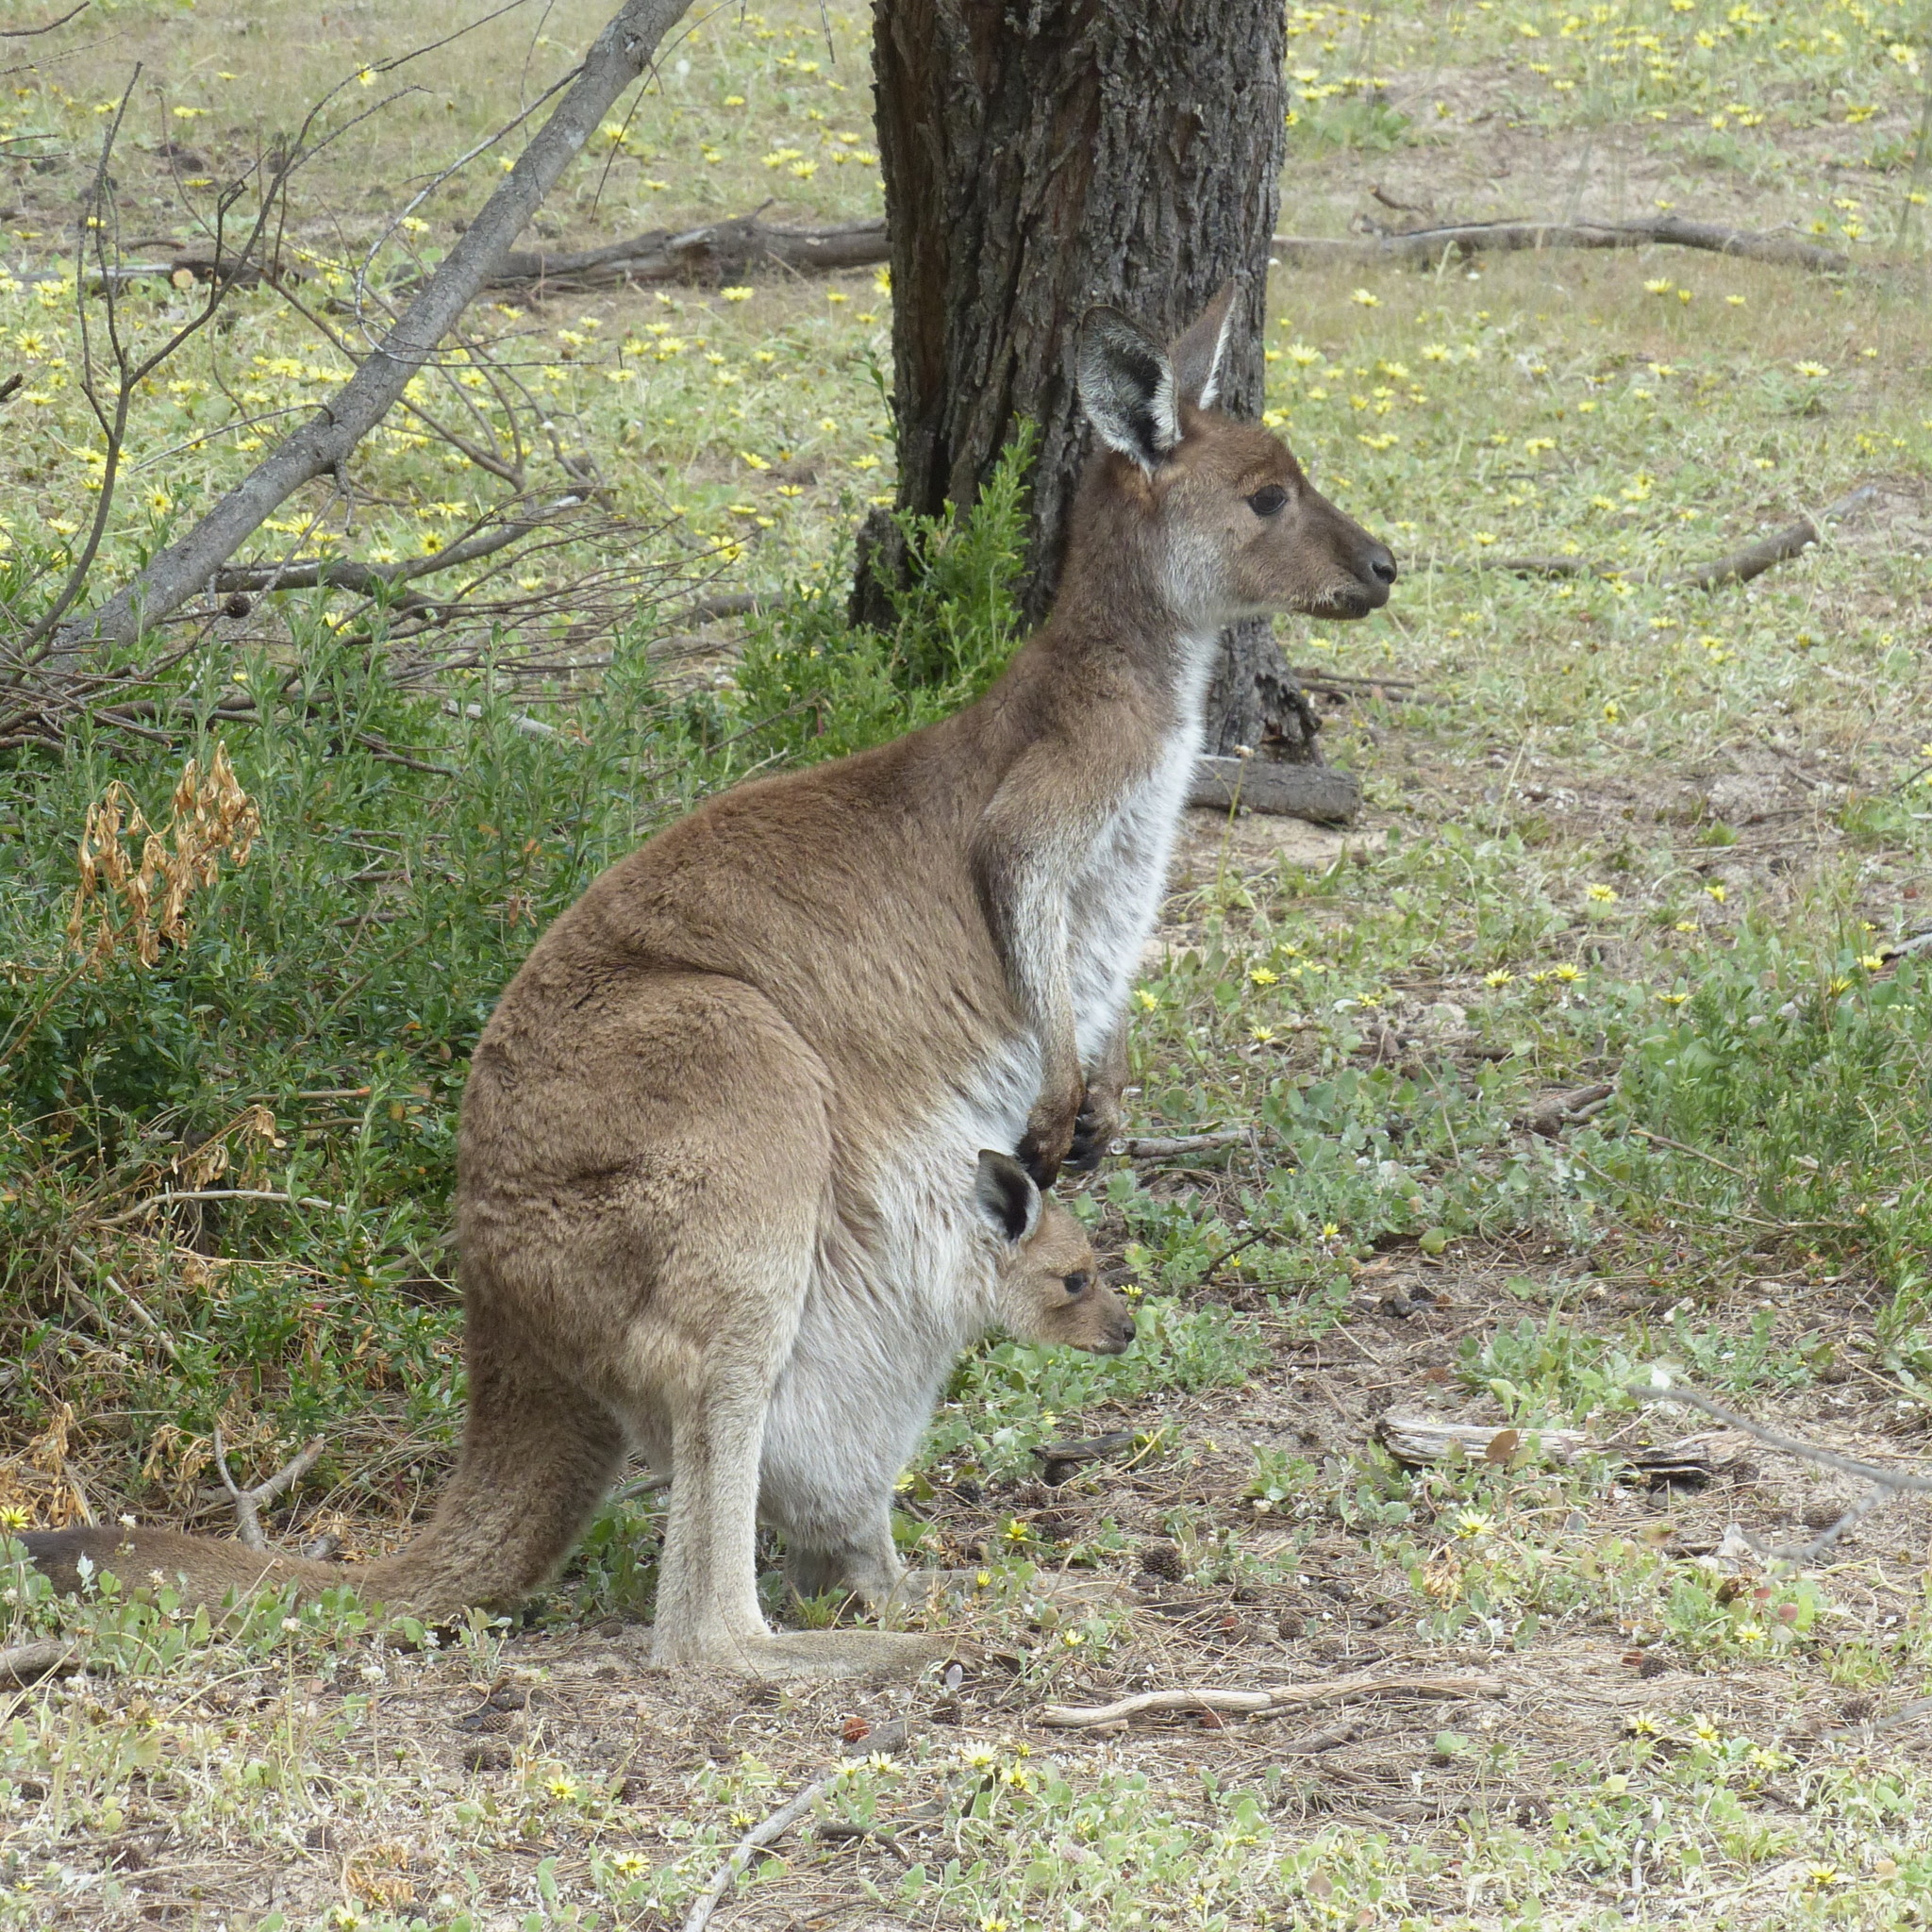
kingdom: Animalia
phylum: Chordata
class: Mammalia
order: Diprotodontia
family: Macropodidae
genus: Macropus
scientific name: Macropus fuliginosus
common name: Western grey kangaroo
